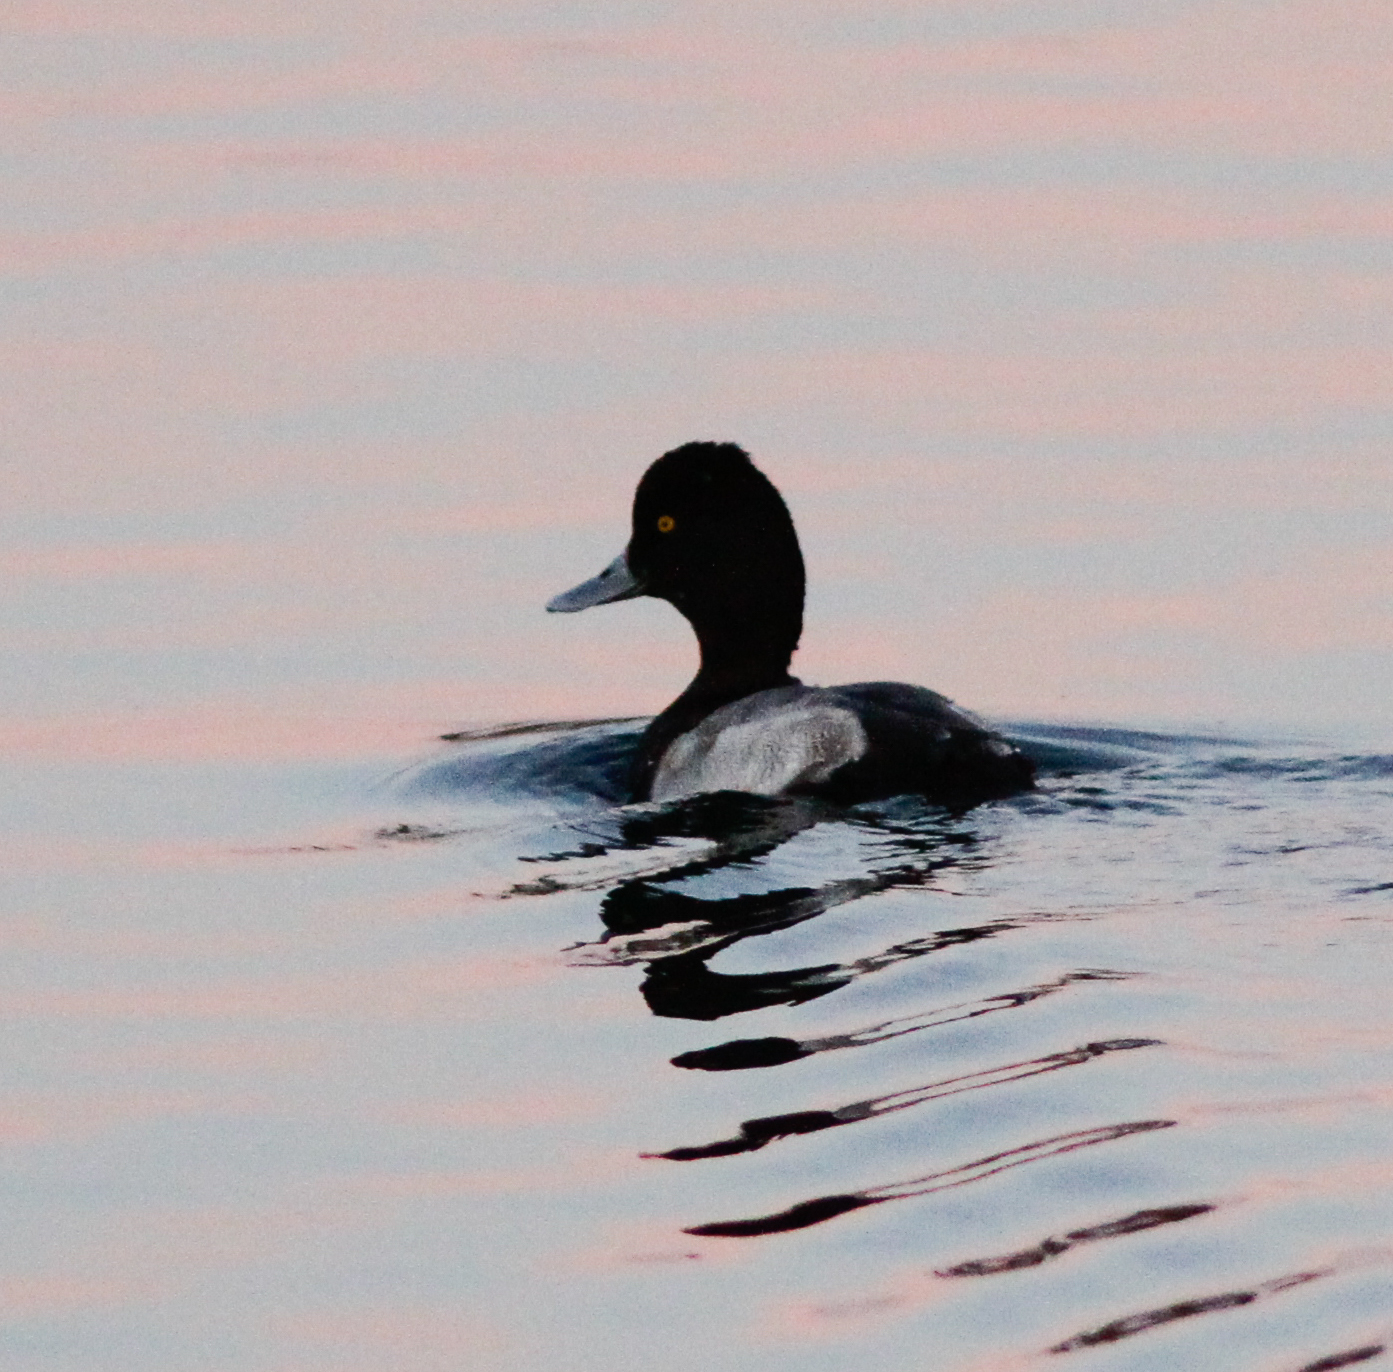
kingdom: Animalia
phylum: Chordata
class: Aves
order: Anseriformes
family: Anatidae
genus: Aythya
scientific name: Aythya affinis
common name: Lesser scaup
